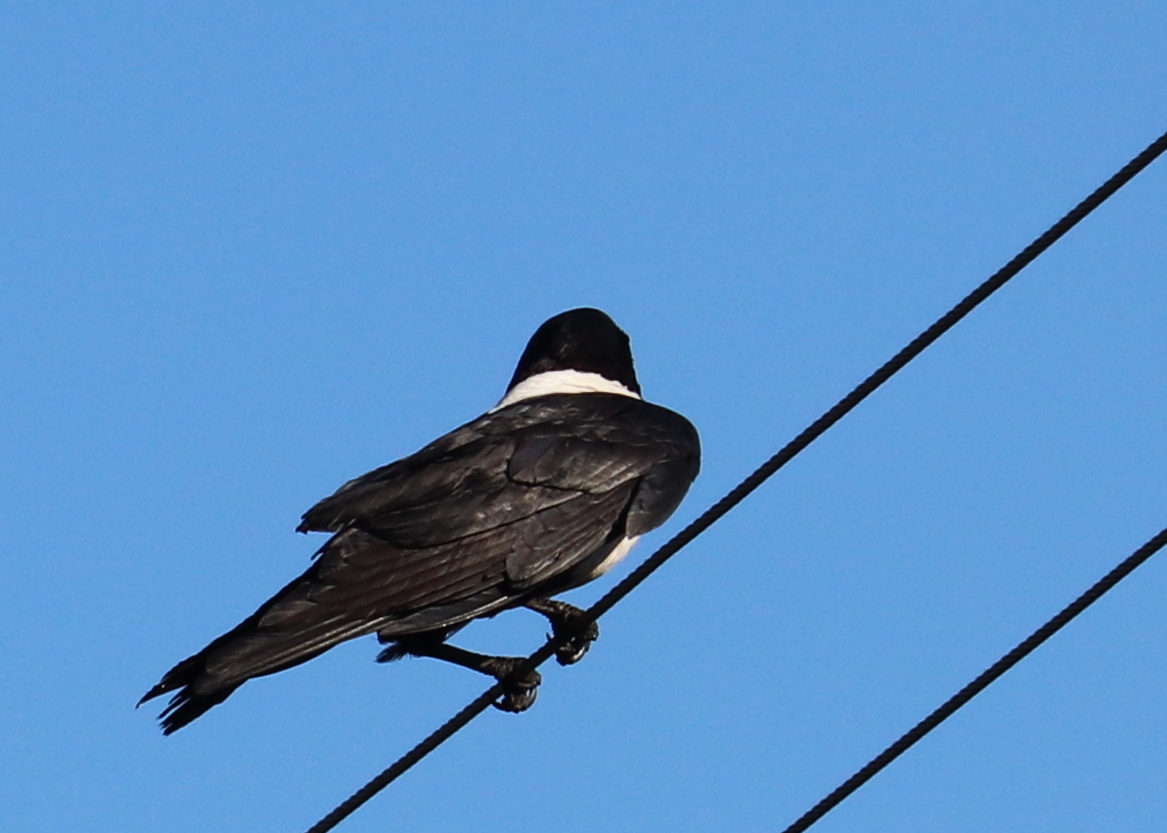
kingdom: Animalia
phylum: Chordata
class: Aves
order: Passeriformes
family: Corvidae
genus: Corvus
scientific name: Corvus albus
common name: Pied crow
